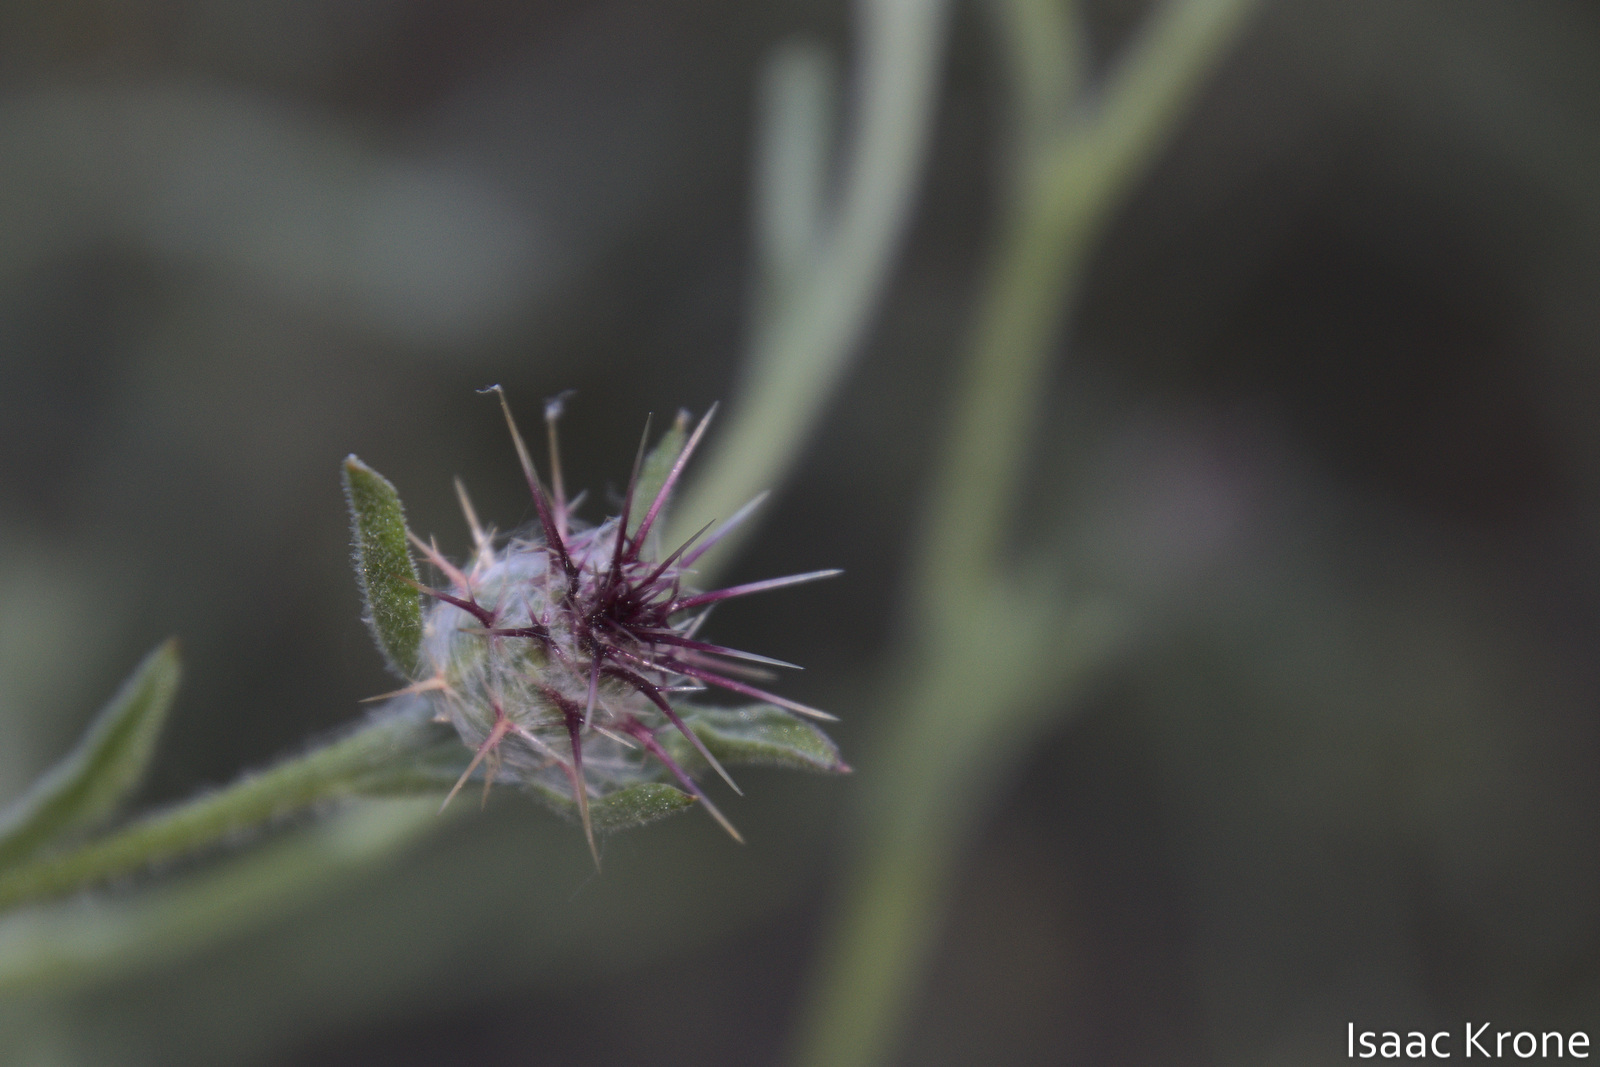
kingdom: Plantae
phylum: Tracheophyta
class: Magnoliopsida
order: Asterales
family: Asteraceae
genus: Centaurea
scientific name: Centaurea melitensis
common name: Maltese star-thistle
